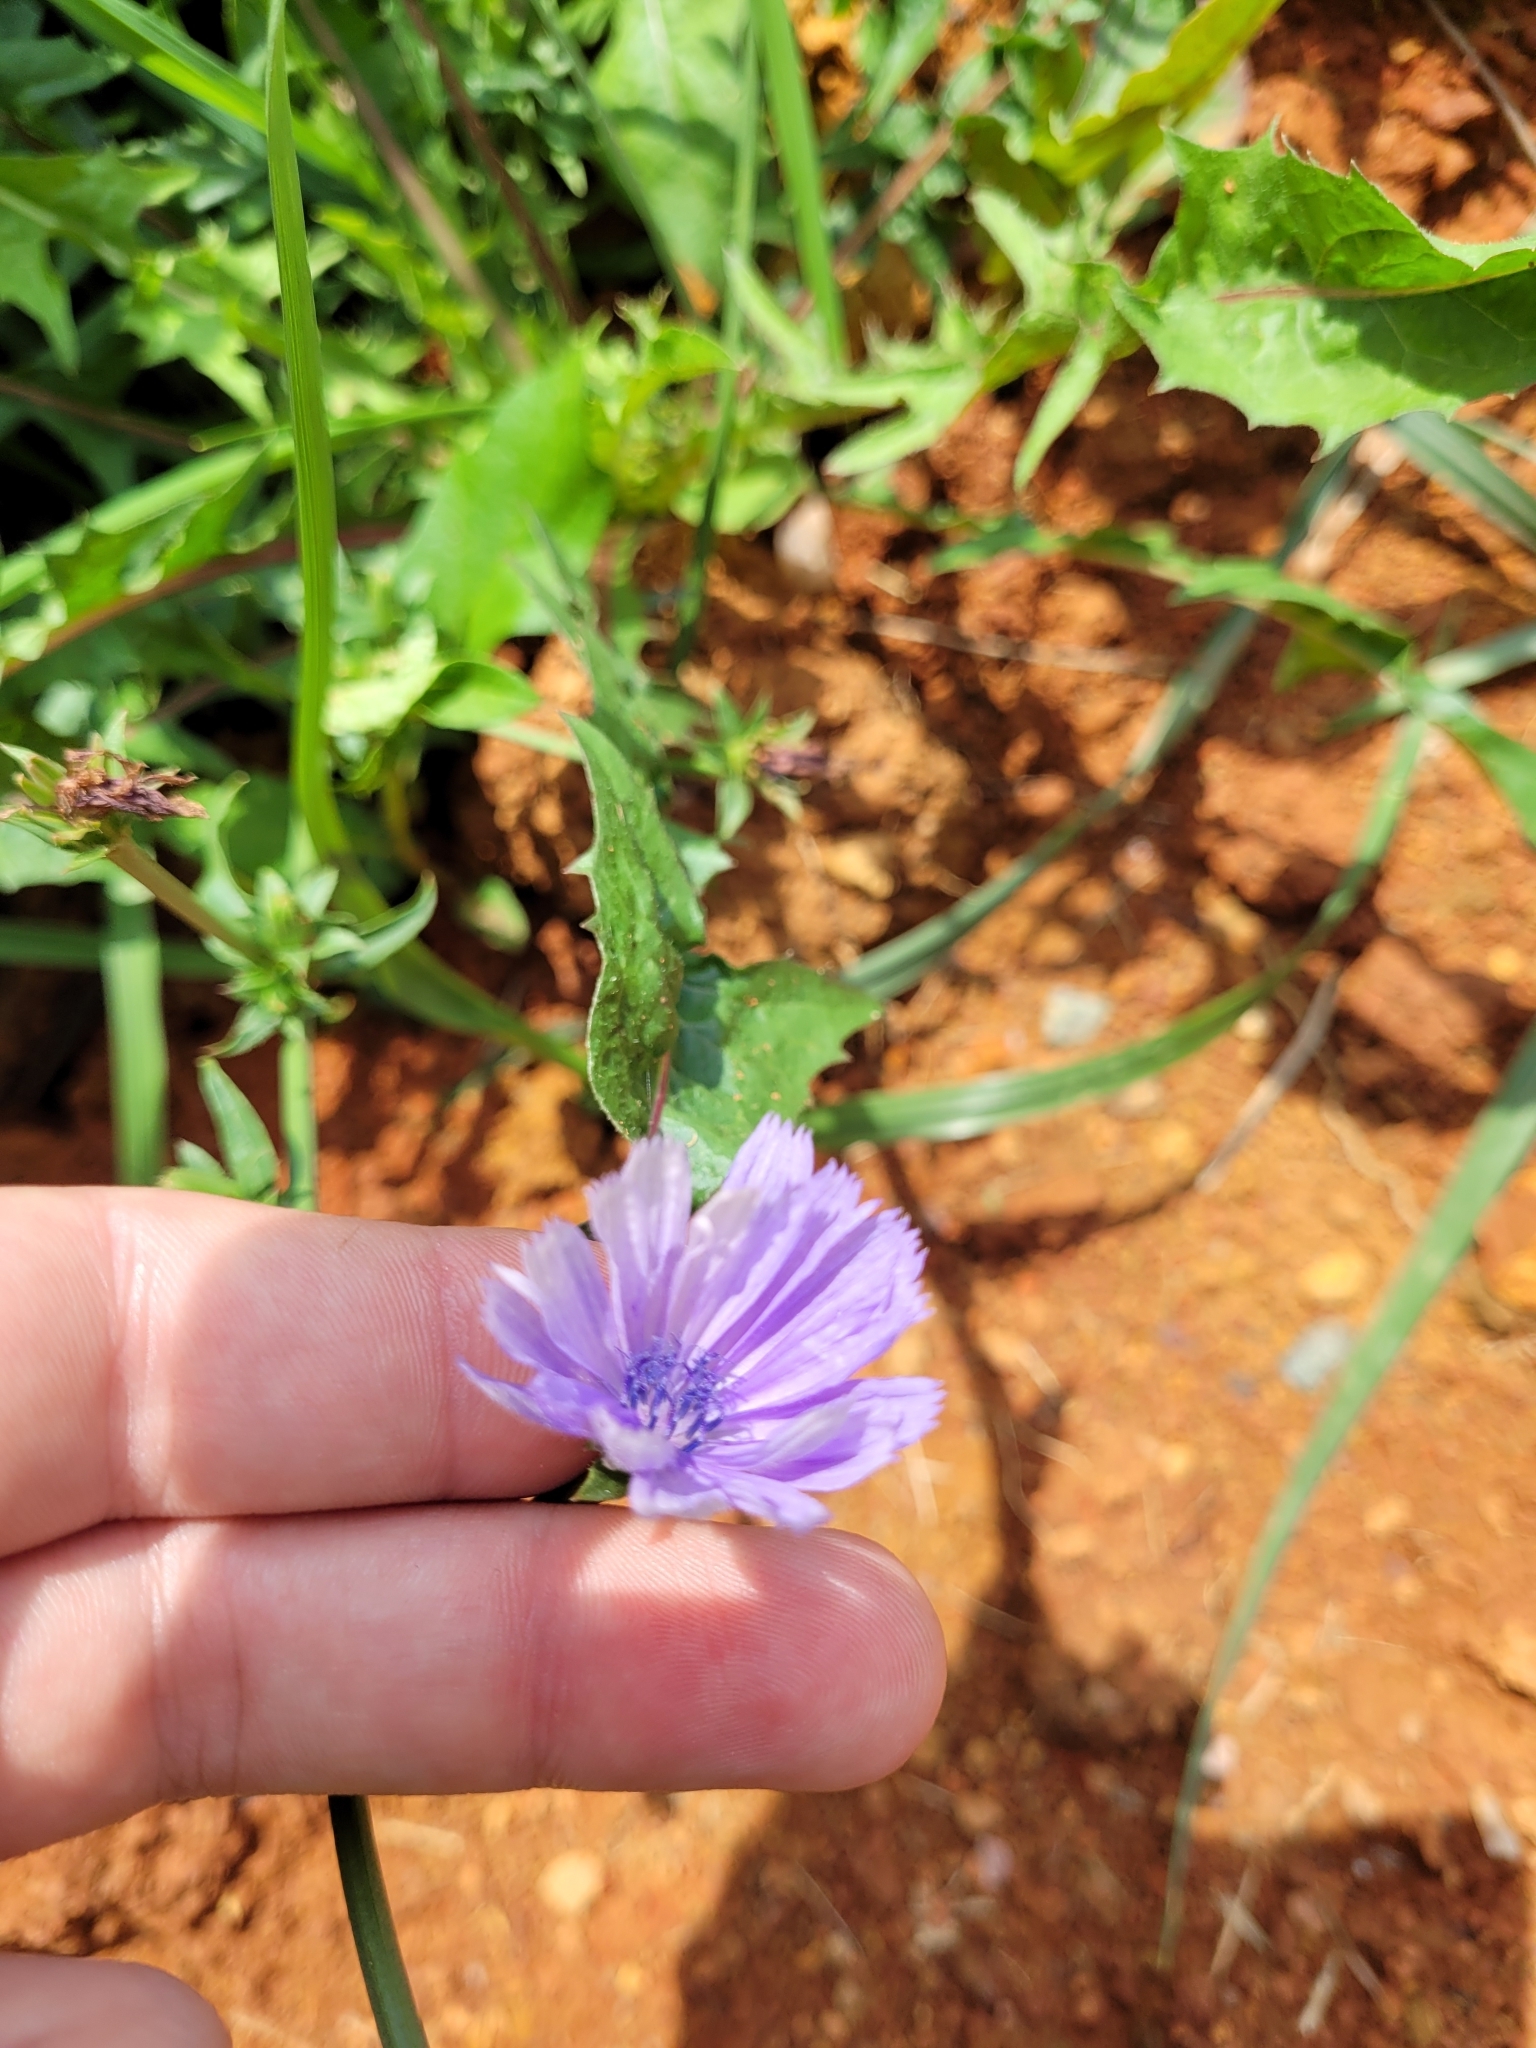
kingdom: Plantae
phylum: Tracheophyta
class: Magnoliopsida
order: Asterales
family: Asteraceae
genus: Cichorium
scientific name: Cichorium intybus
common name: Chicory
